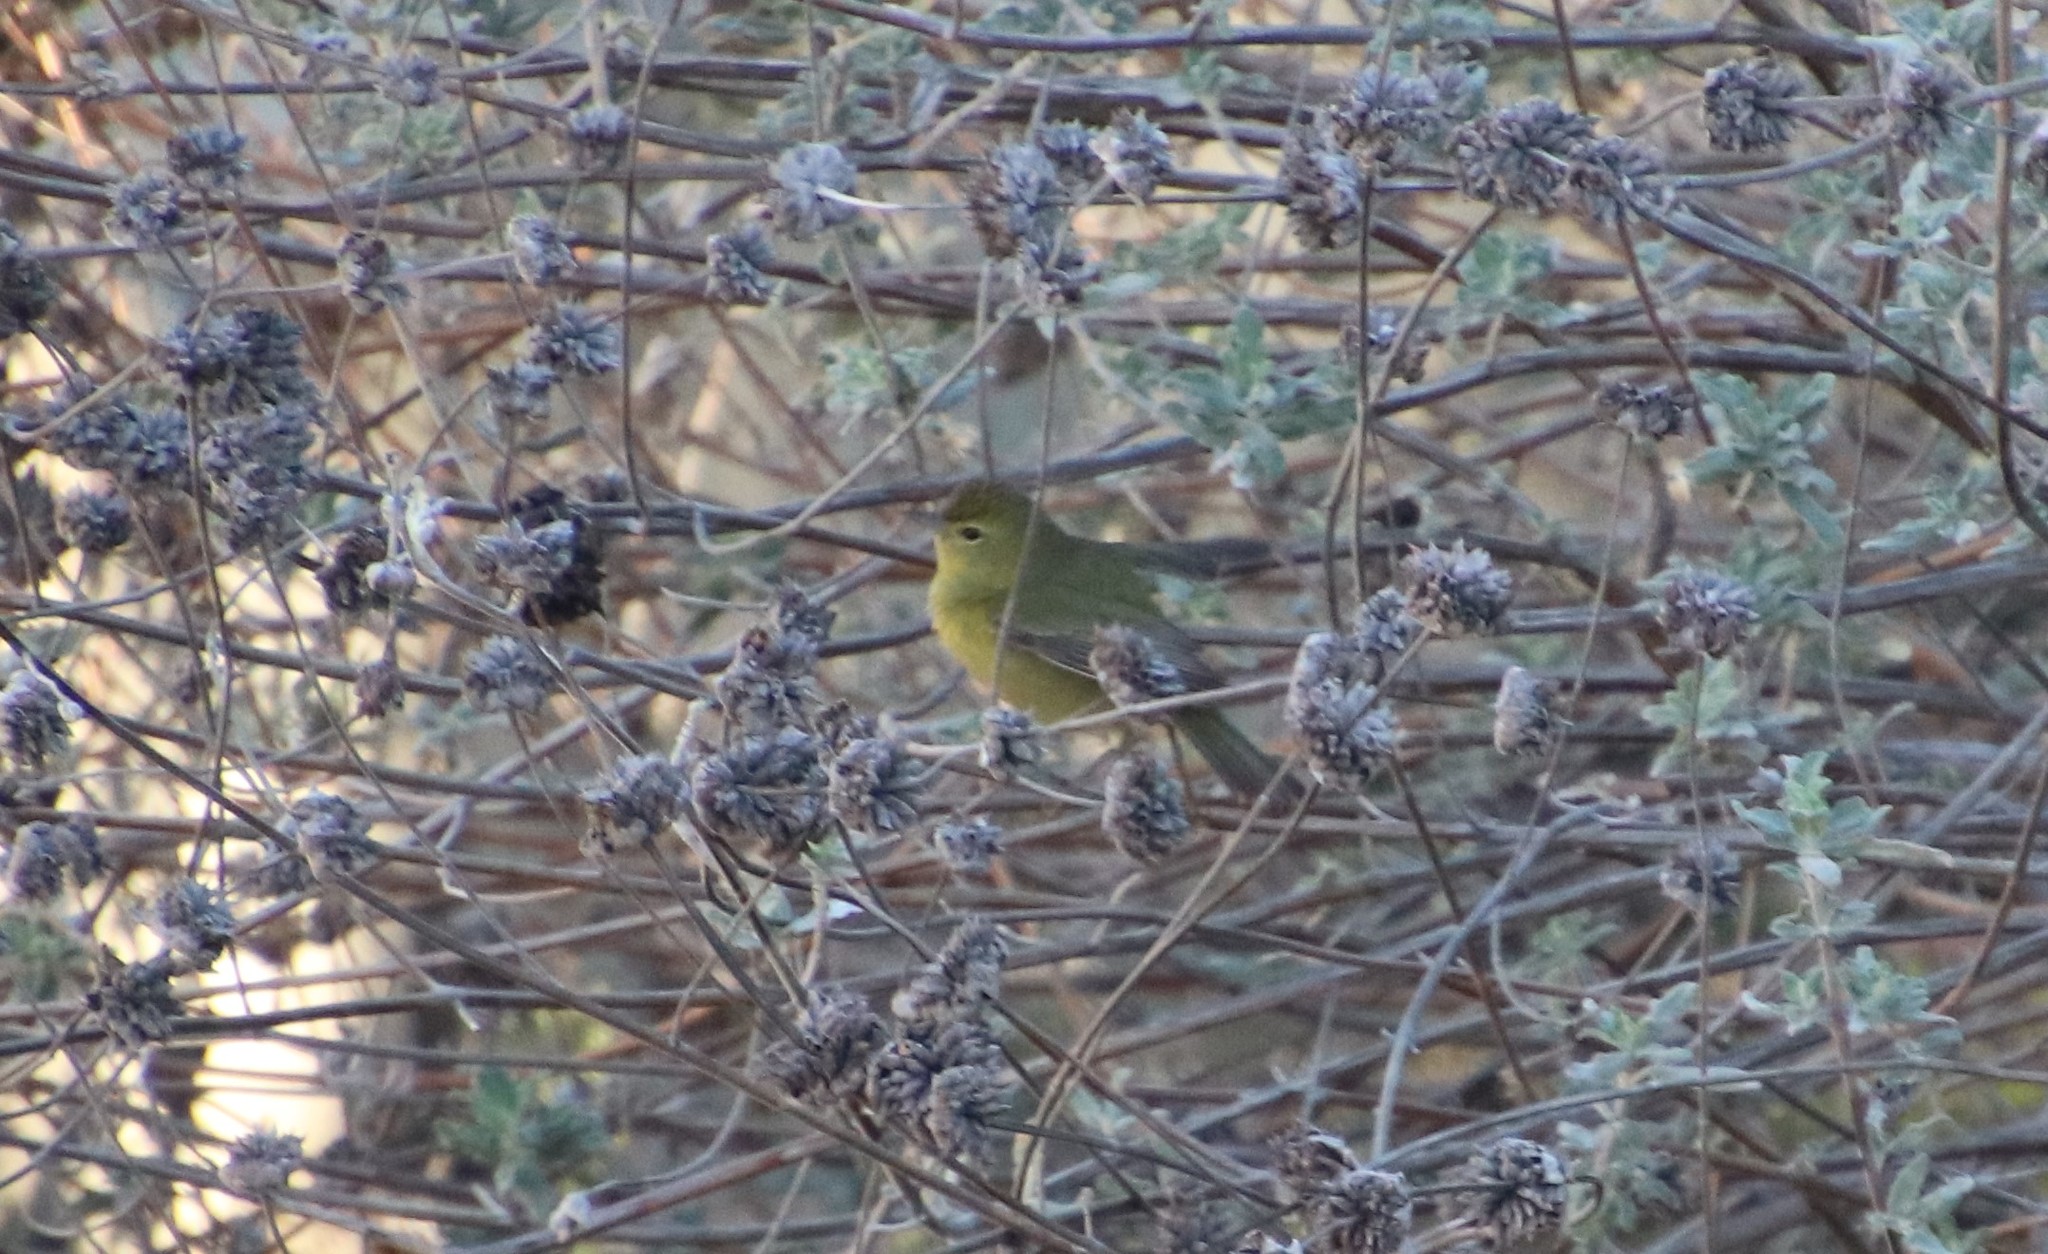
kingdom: Animalia
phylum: Chordata
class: Aves
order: Passeriformes
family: Parulidae
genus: Leiothlypis
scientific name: Leiothlypis celata
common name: Orange-crowned warbler
